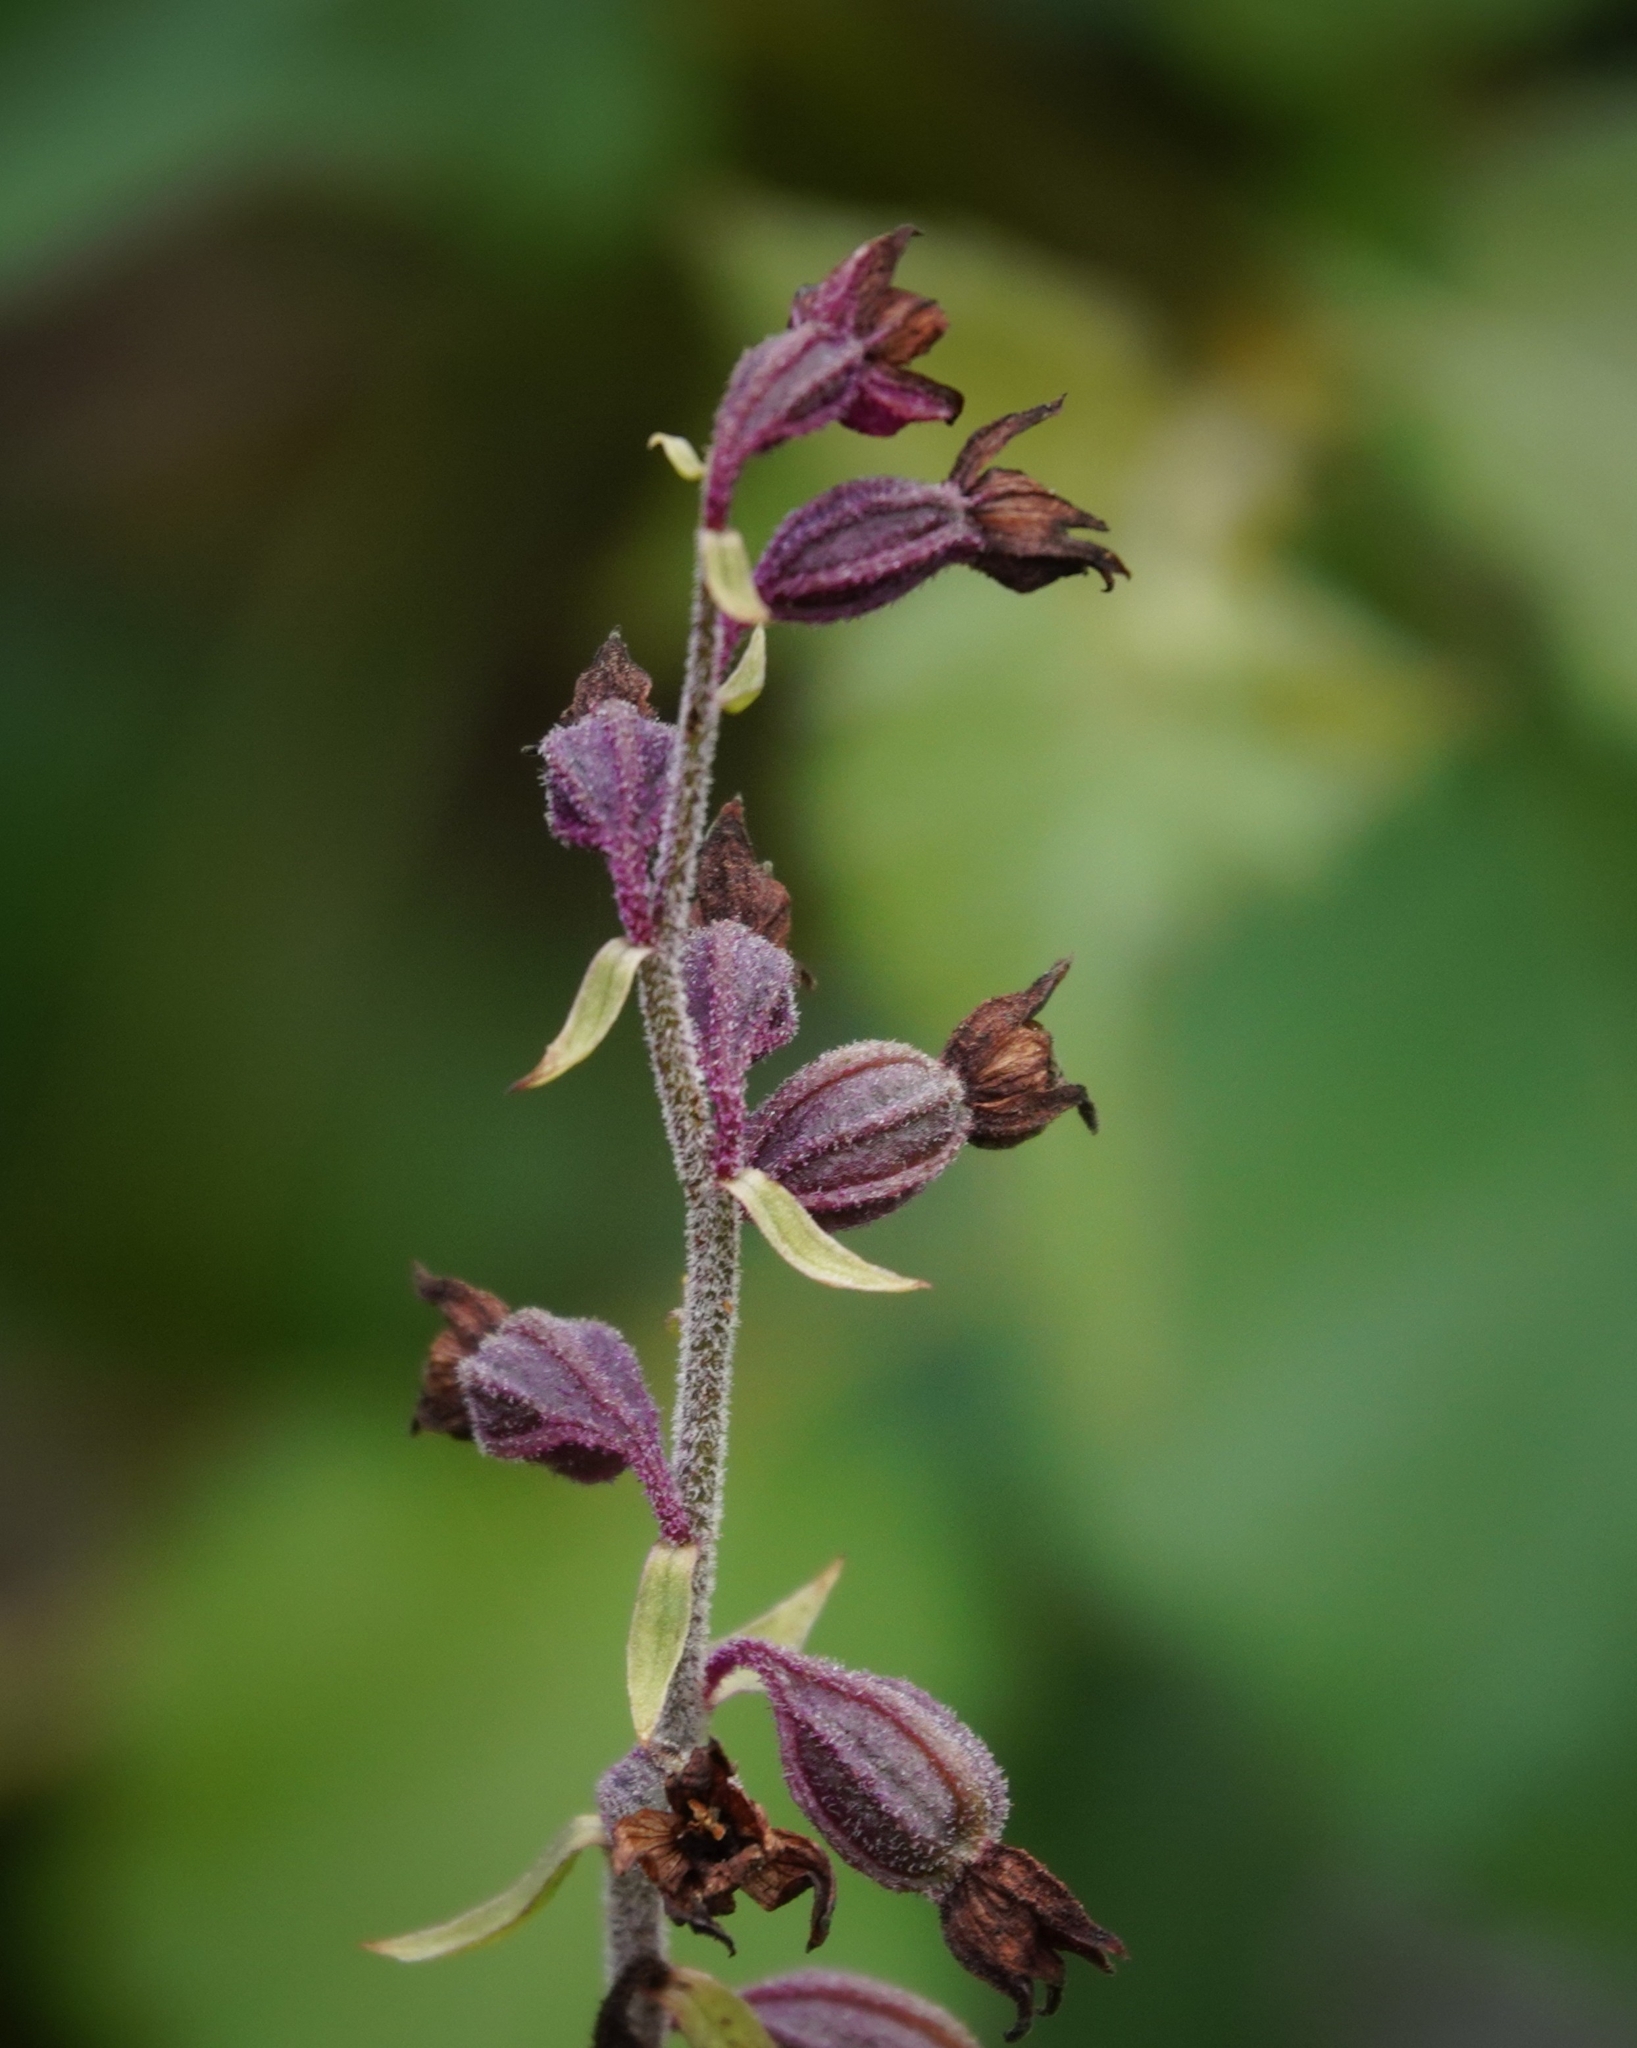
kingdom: Plantae
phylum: Tracheophyta
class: Liliopsida
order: Asparagales
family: Orchidaceae
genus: Epipactis
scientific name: Epipactis atrorubens
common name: Dark-red helleborine
